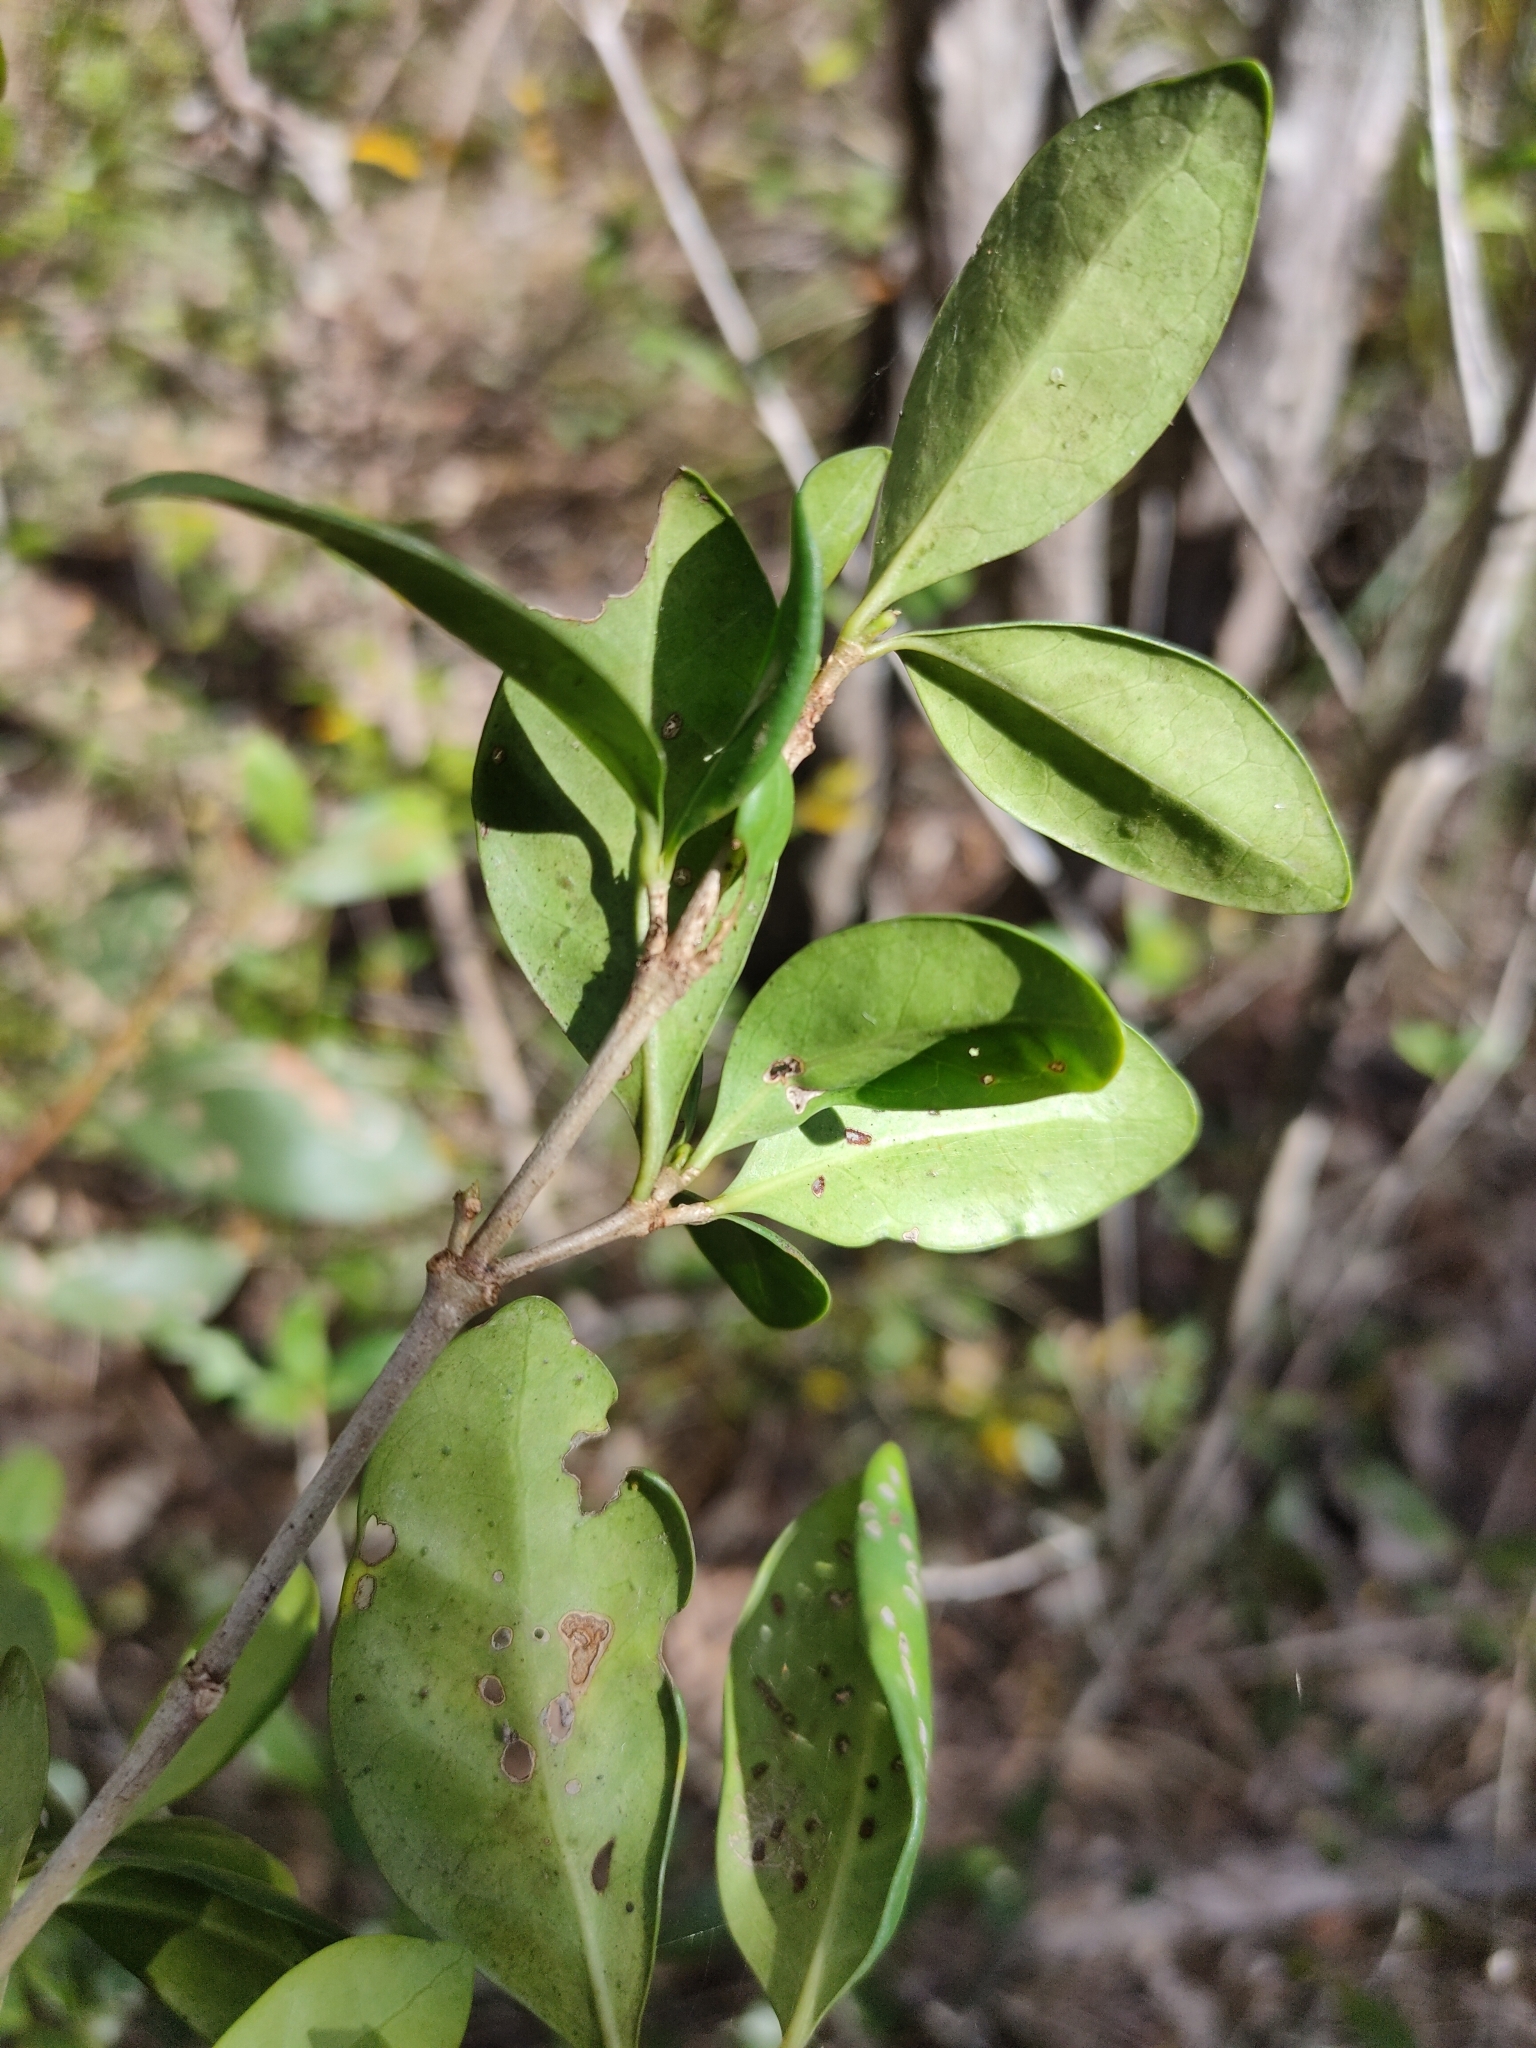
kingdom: Plantae
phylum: Tracheophyta
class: Magnoliopsida
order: Gentianales
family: Rubiaceae
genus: Cyclophyllum
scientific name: Cyclophyllum coprosmoides
